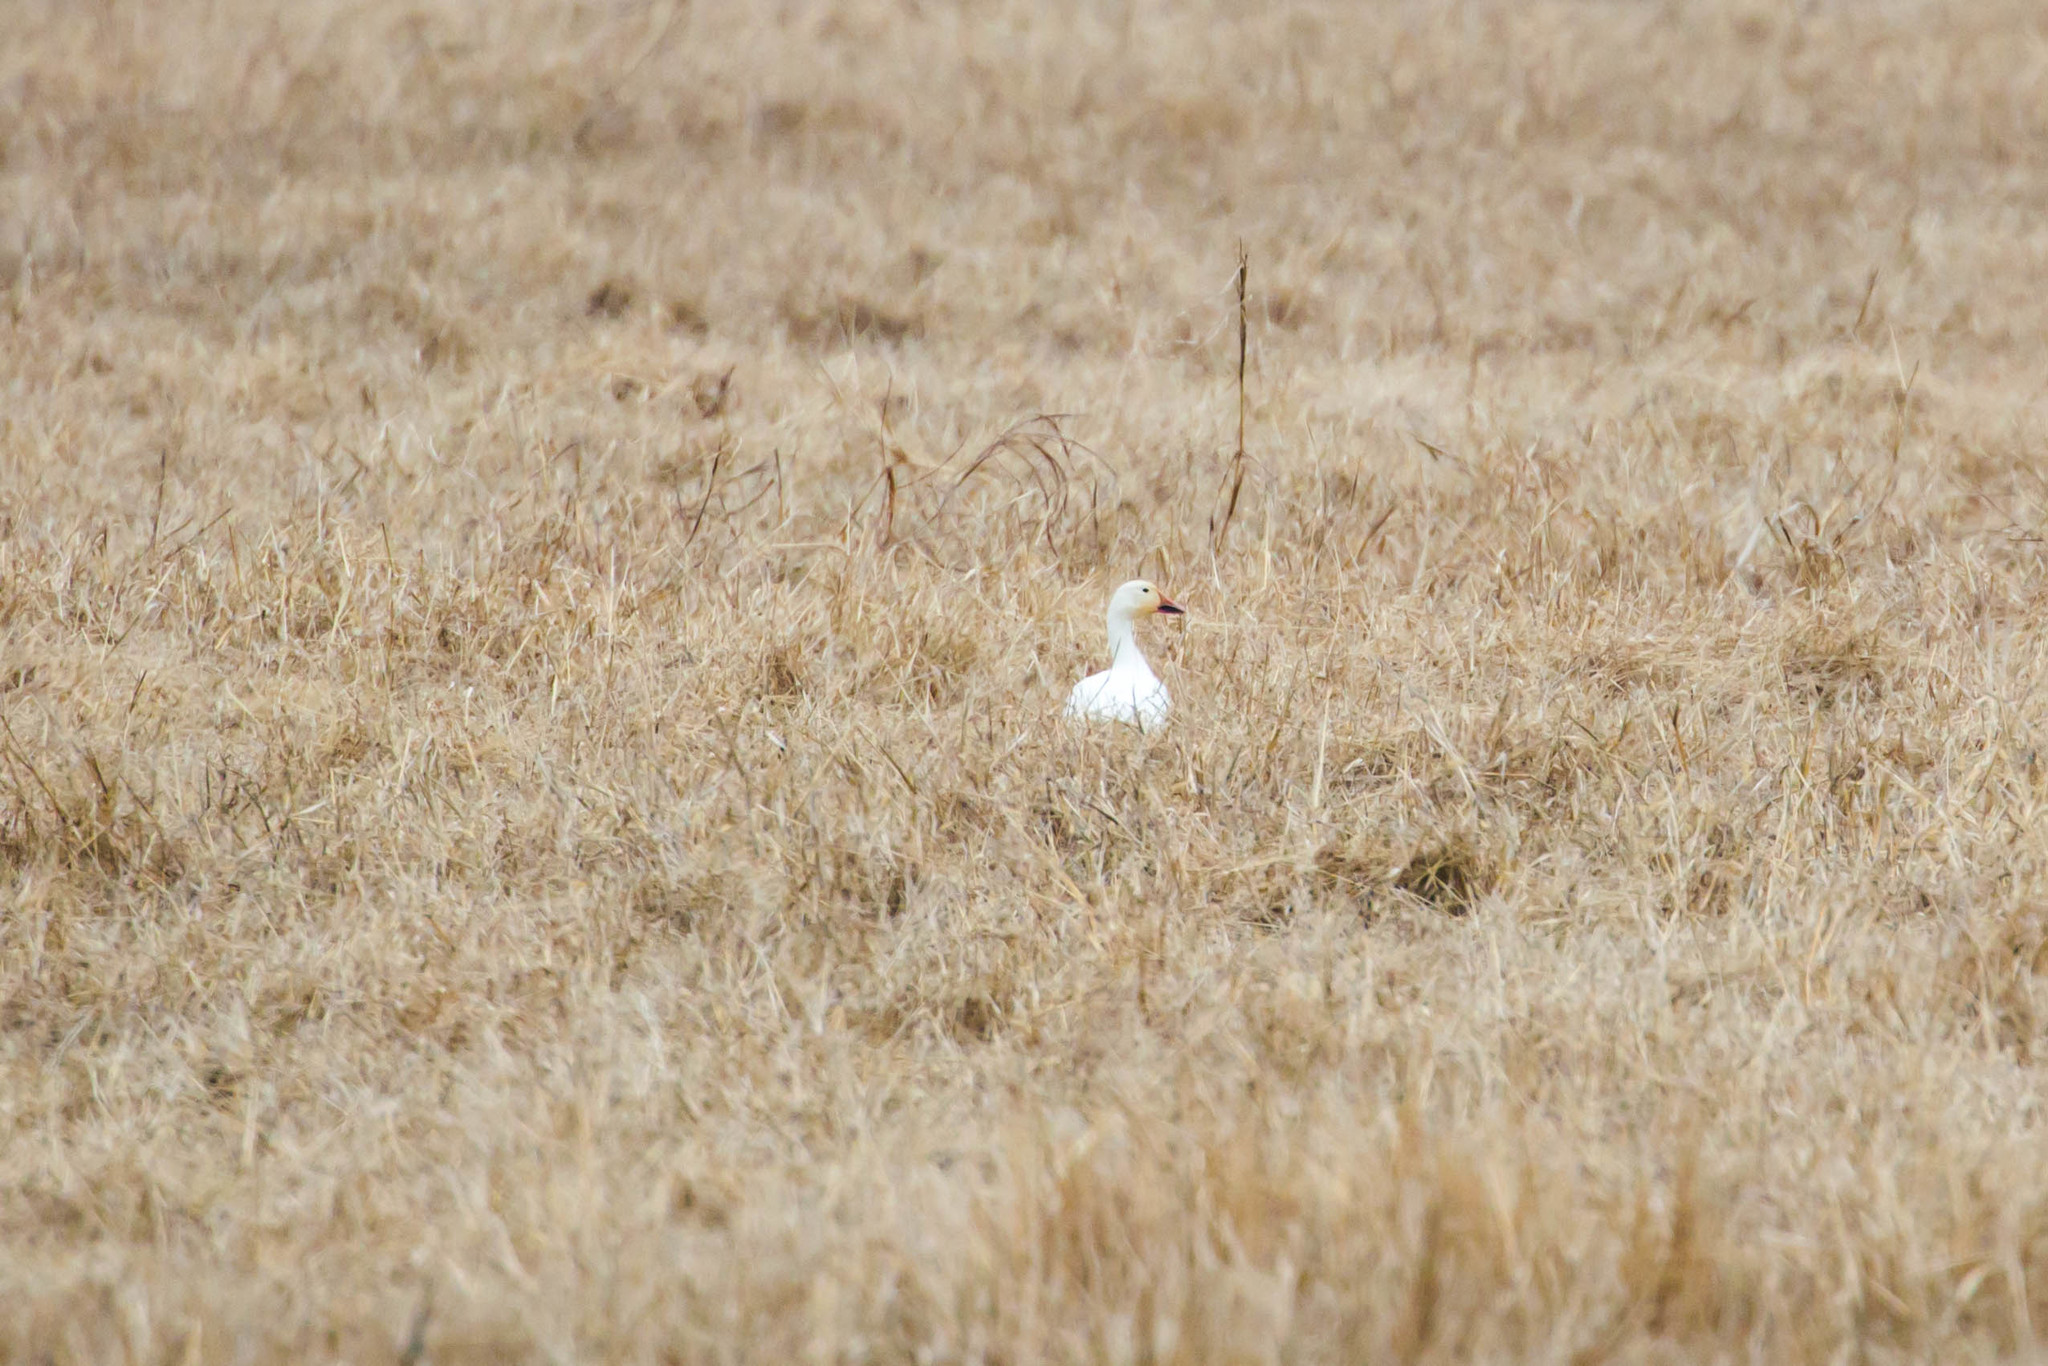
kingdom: Animalia
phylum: Chordata
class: Aves
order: Anseriformes
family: Anatidae
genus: Anser
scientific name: Anser caerulescens
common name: Snow goose
